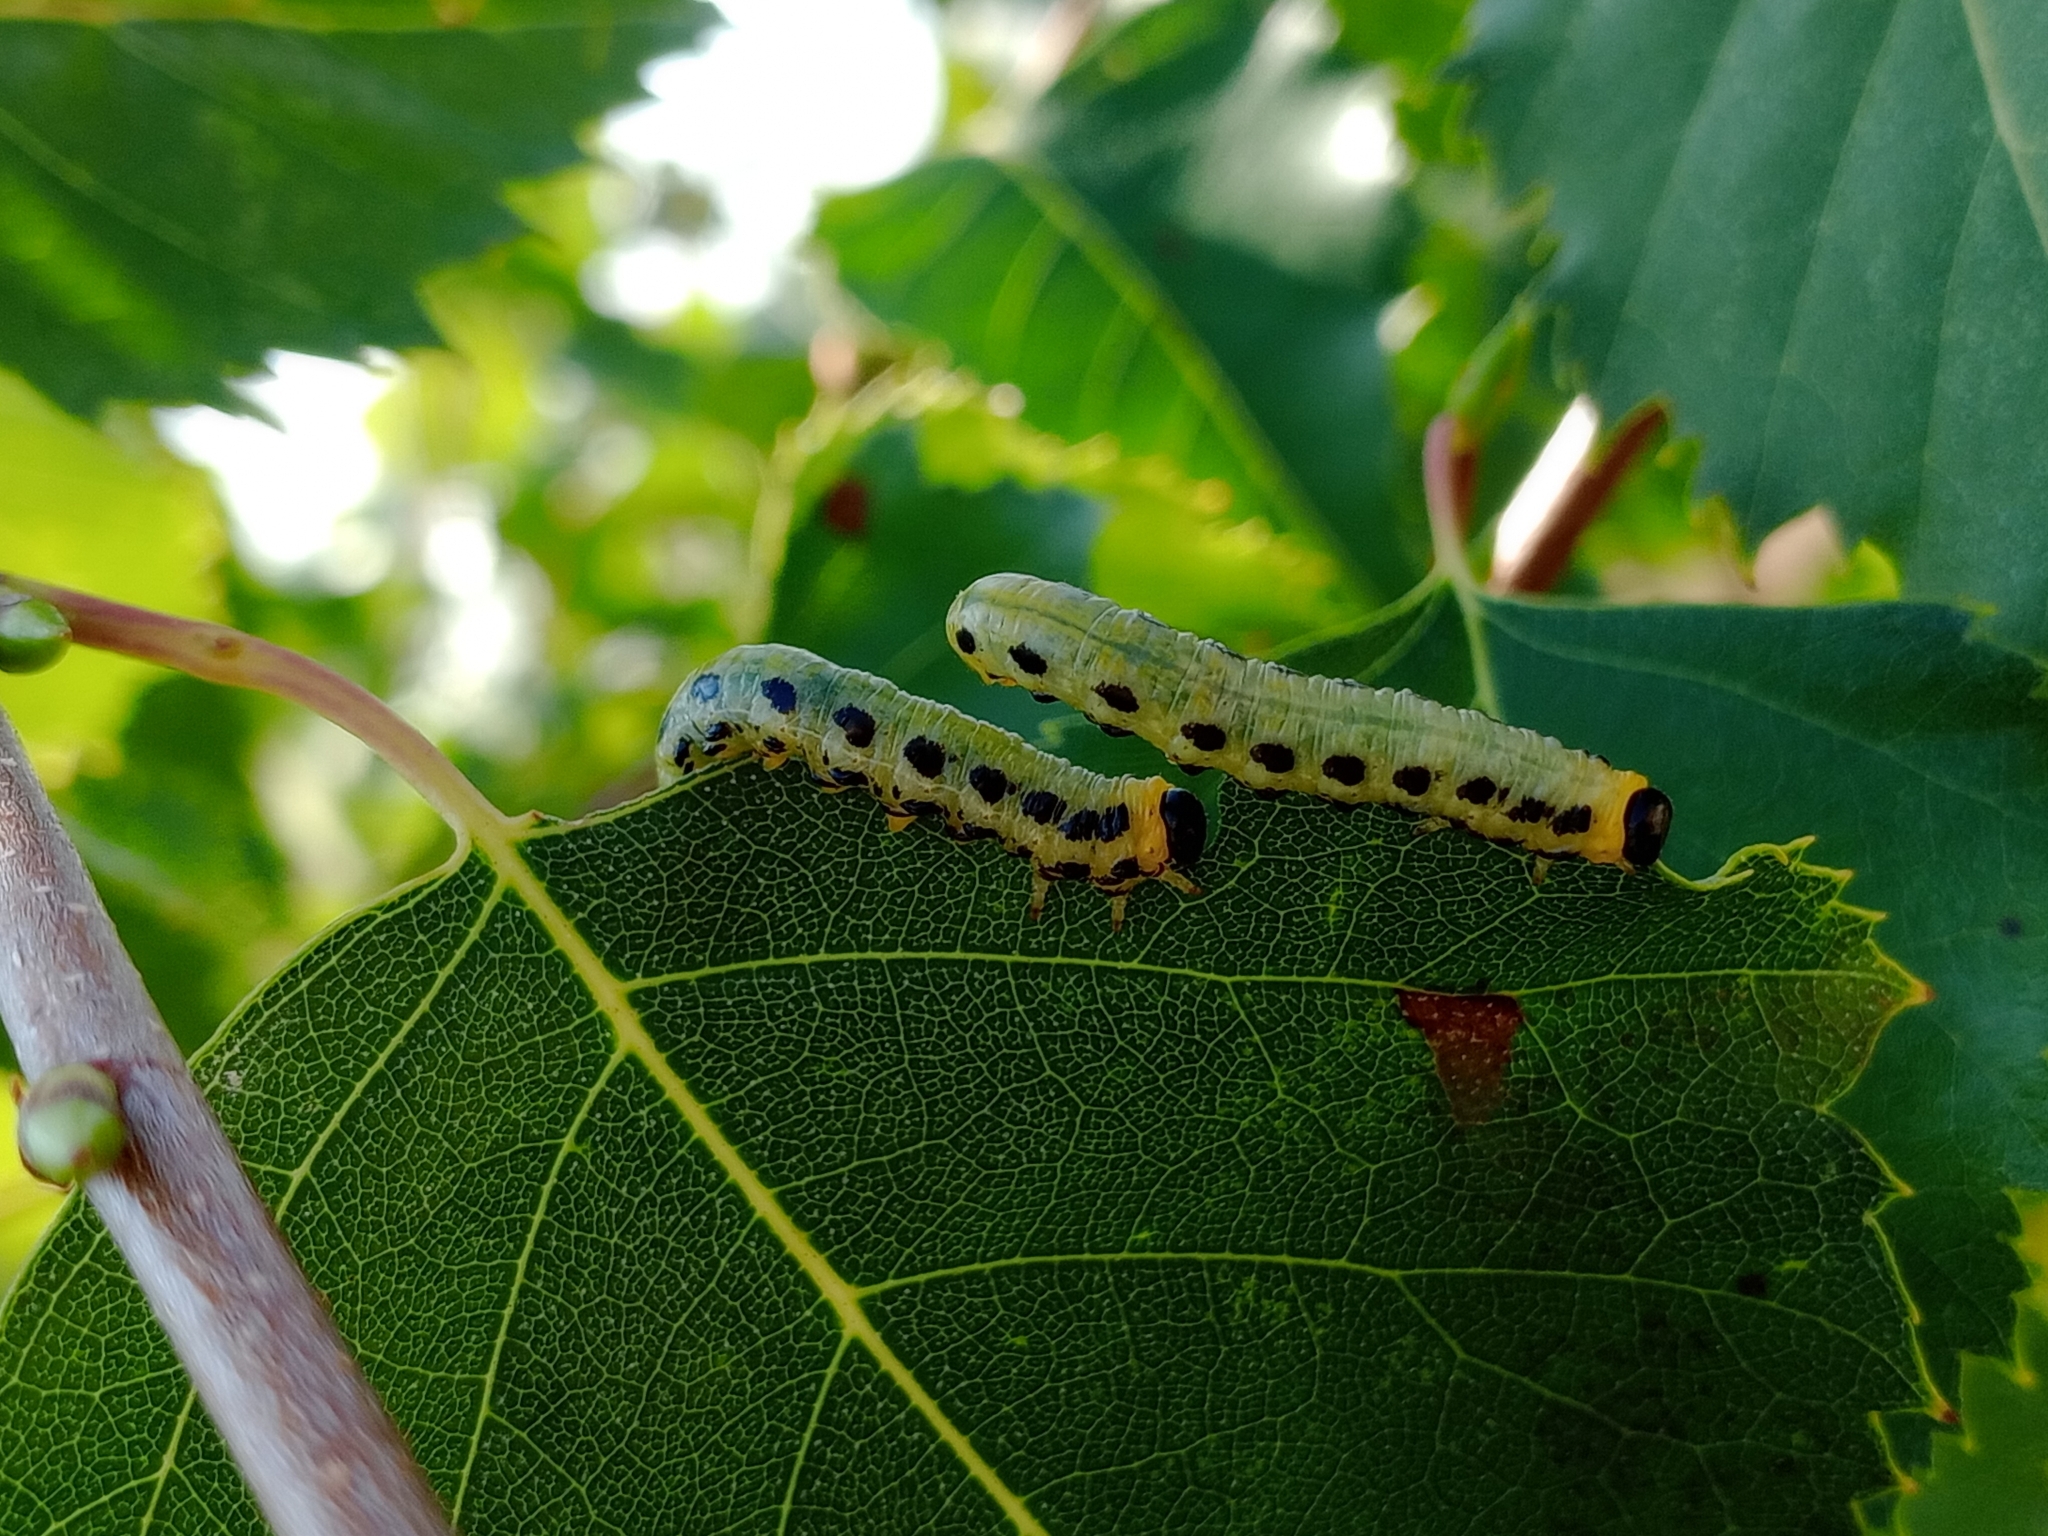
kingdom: Animalia
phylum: Arthropoda
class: Insecta
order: Hymenoptera
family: Tenthredinidae
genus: Craesus
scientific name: Craesus septentrionalis
